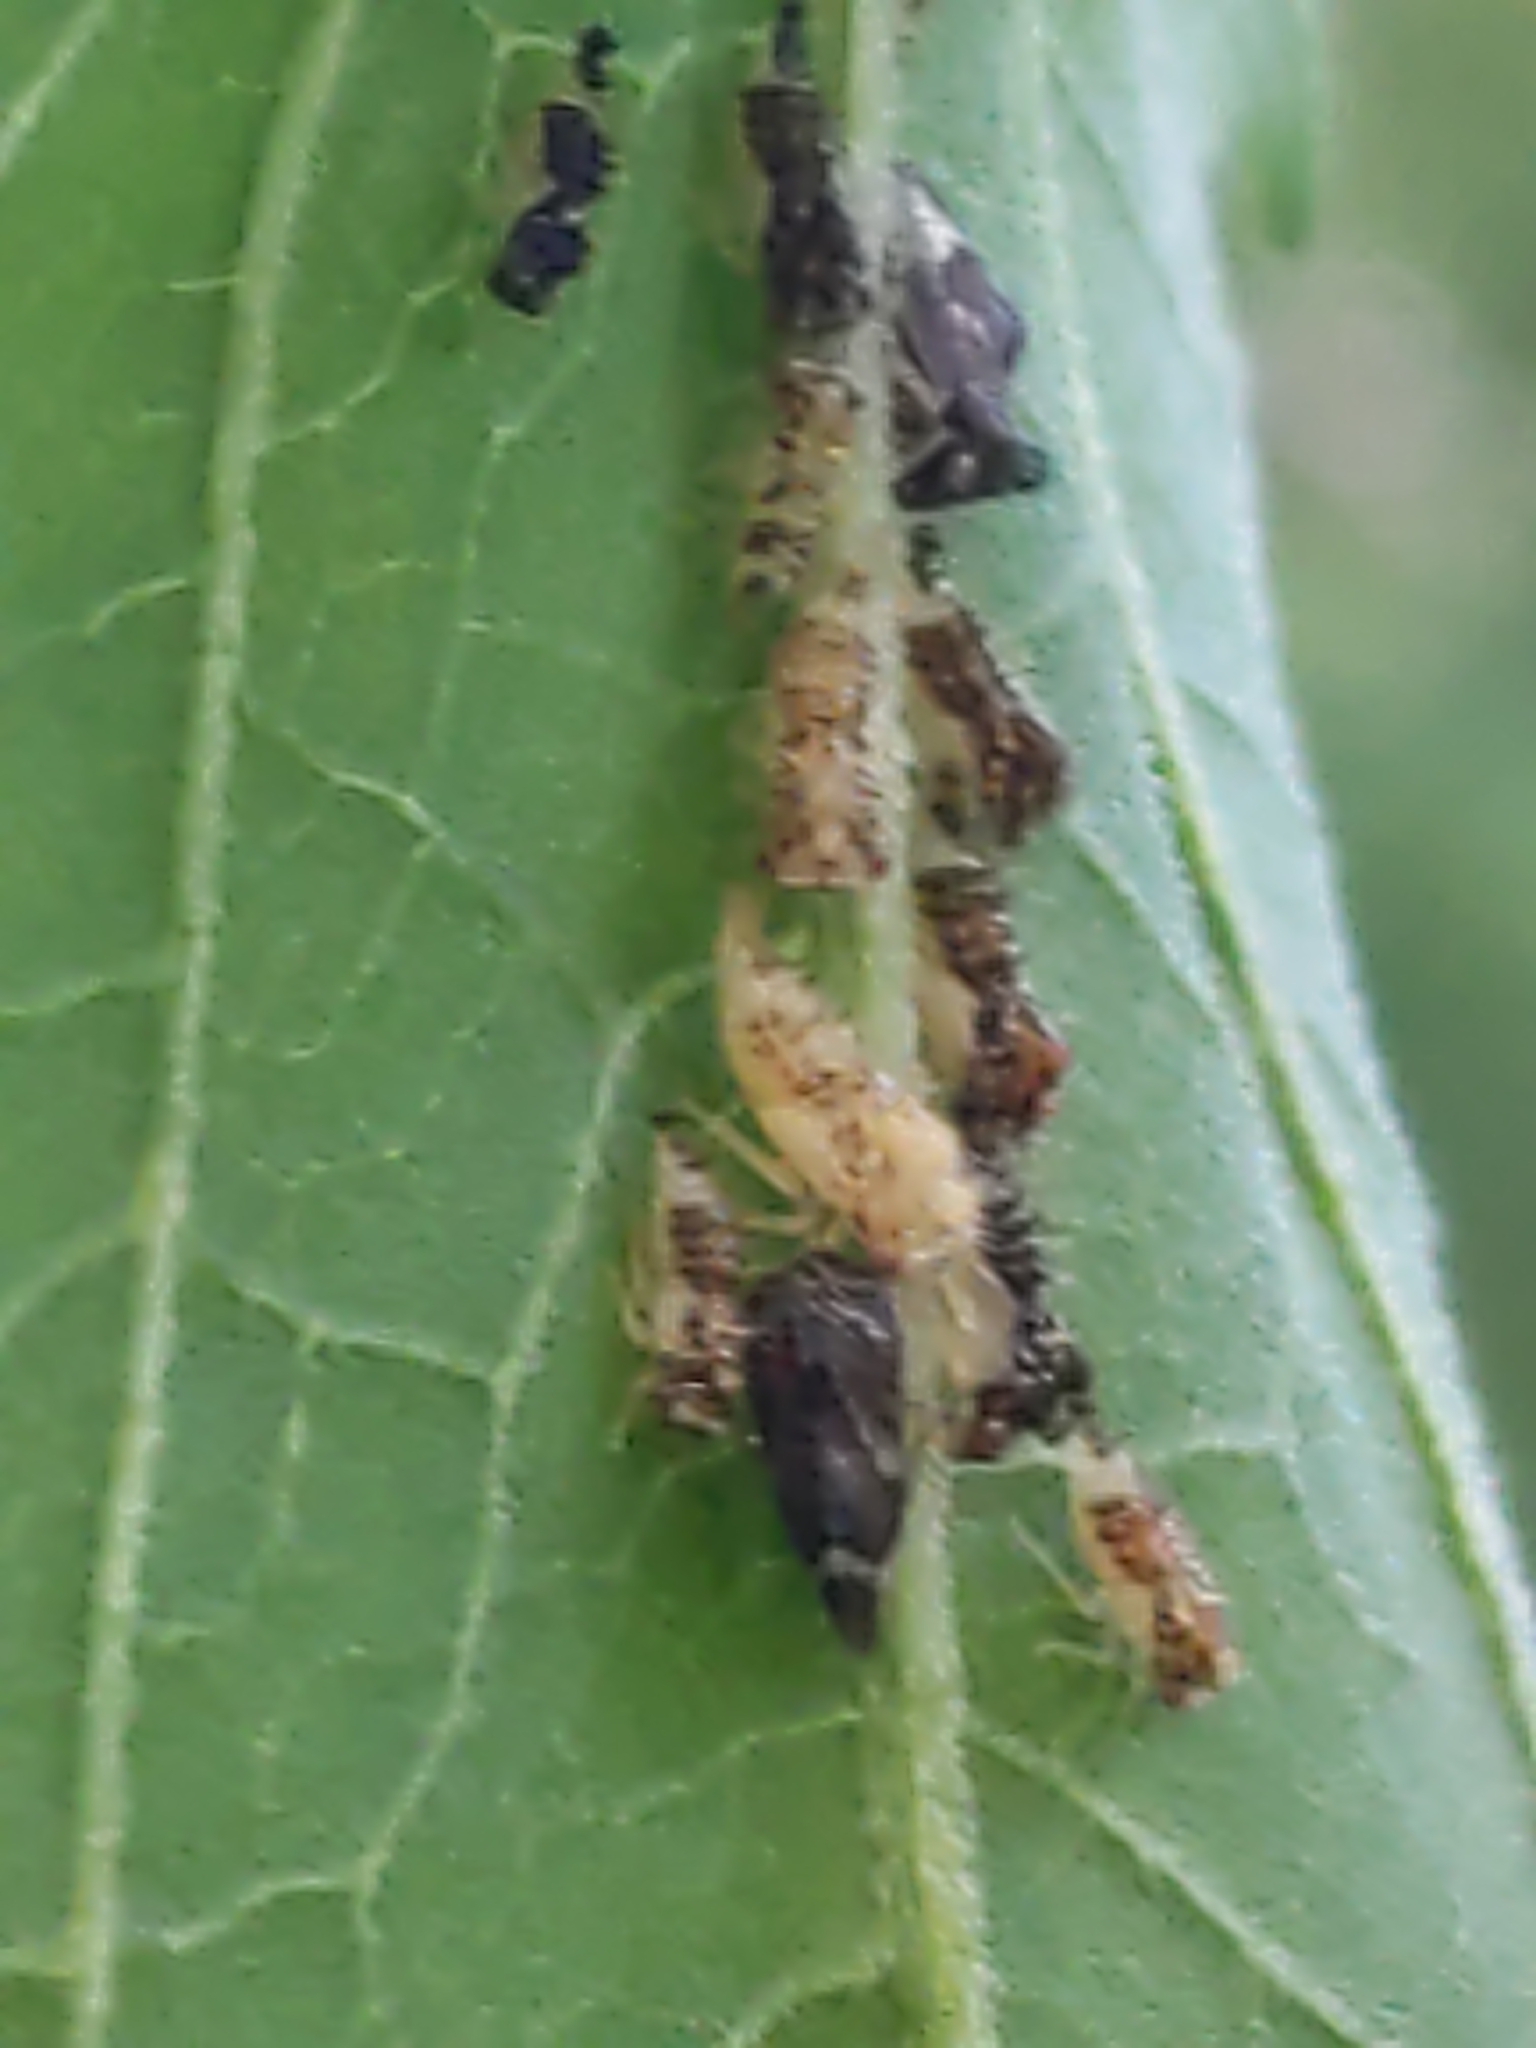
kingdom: Animalia
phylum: Arthropoda
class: Insecta
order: Hemiptera
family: Membracidae
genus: Entylia
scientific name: Entylia carinata
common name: Keeled treehopper
